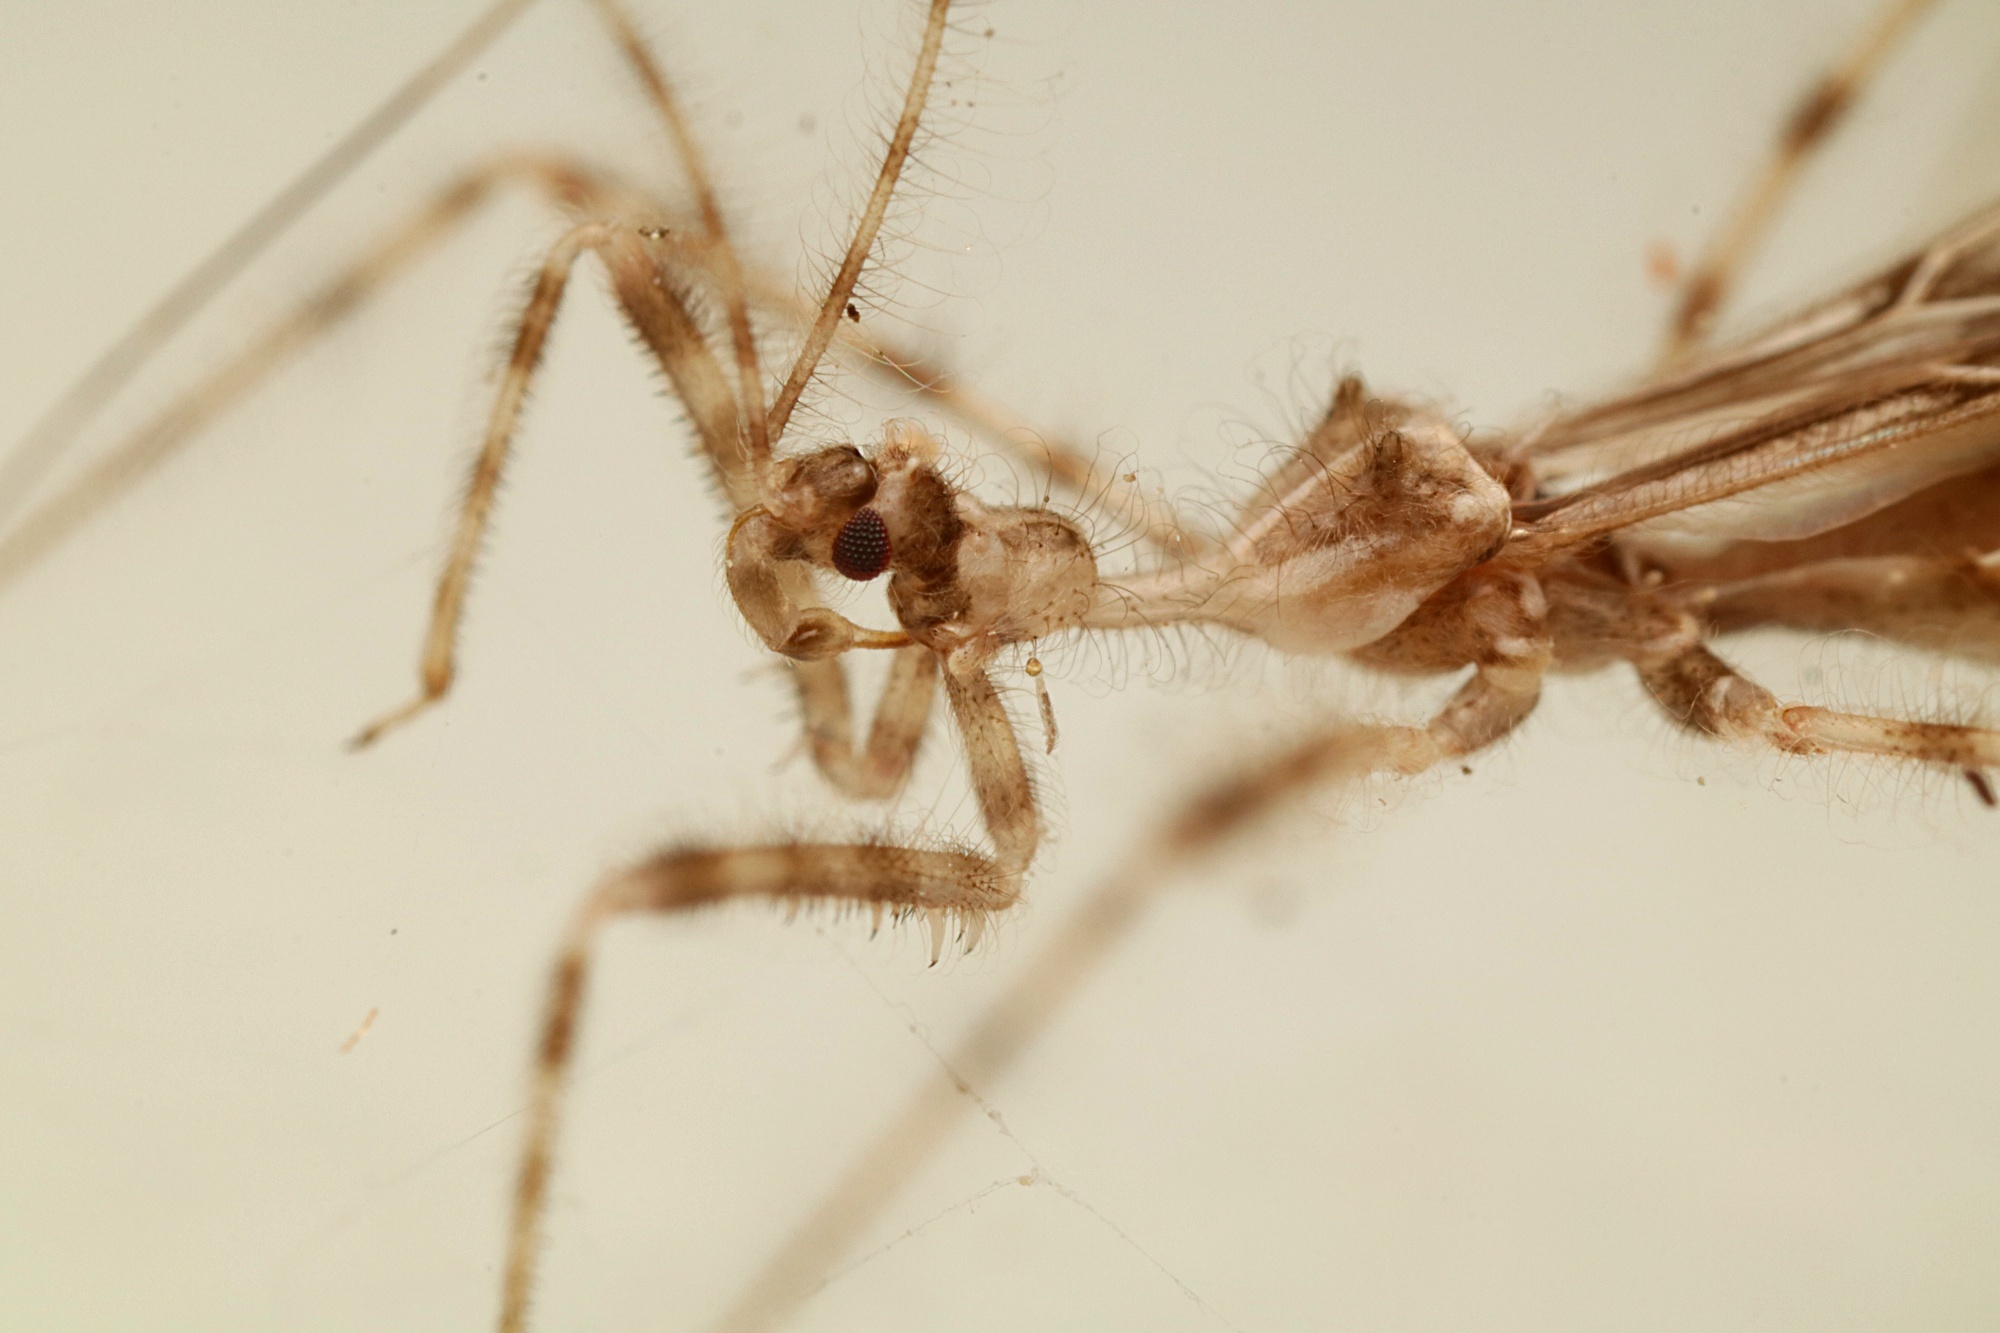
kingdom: Animalia
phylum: Arthropoda
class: Insecta
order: Hemiptera
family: Reduviidae
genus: Stenolemus
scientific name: Stenolemus fraterculus
